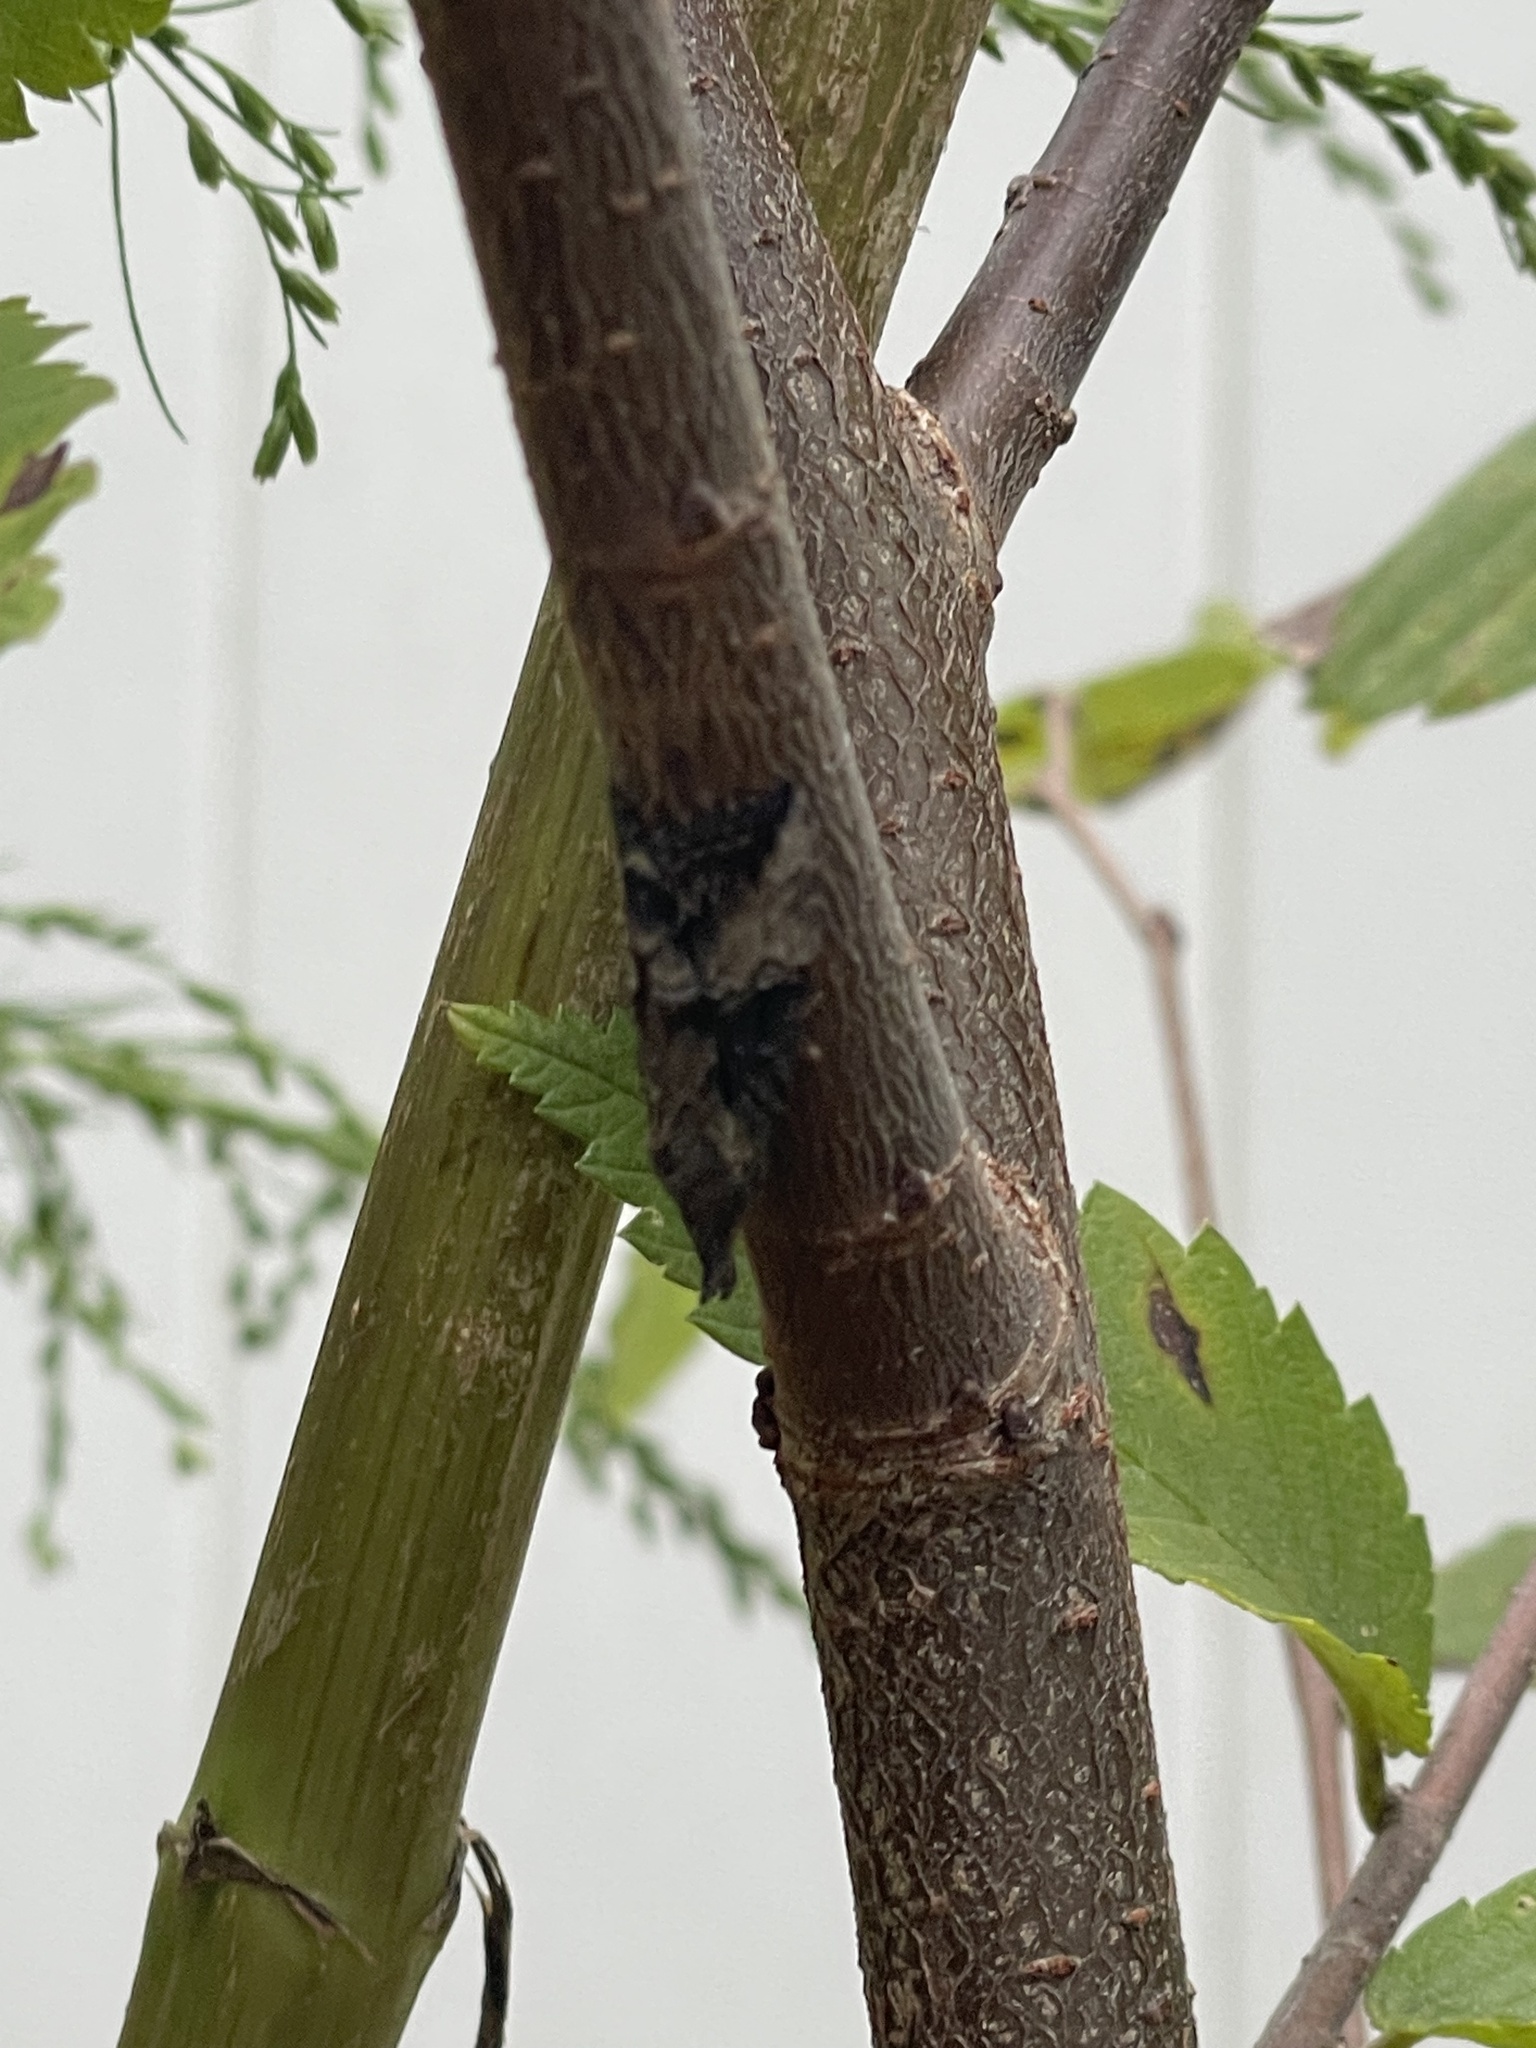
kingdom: Animalia
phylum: Arthropoda
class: Insecta
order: Lepidoptera
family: Erebidae
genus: Hypena
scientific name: Hypena scabra
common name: Green cloverworm
